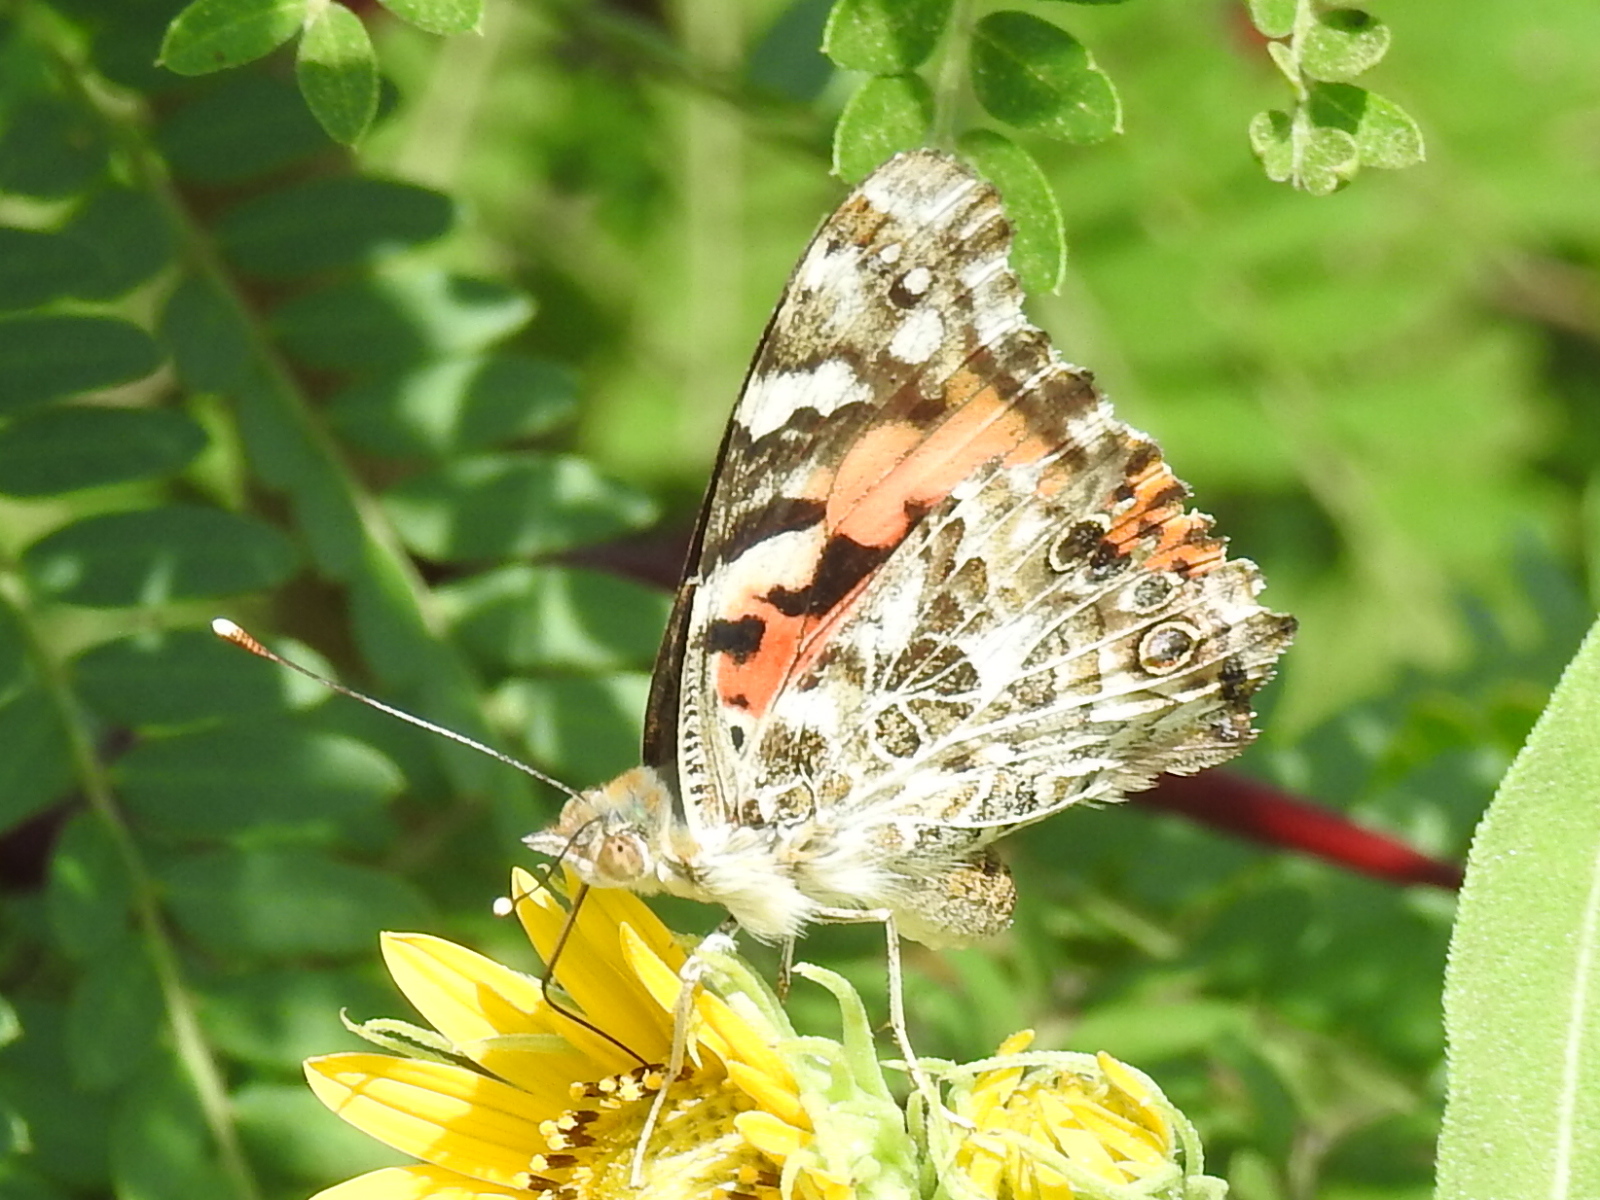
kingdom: Animalia
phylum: Arthropoda
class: Insecta
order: Lepidoptera
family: Nymphalidae
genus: Vanessa
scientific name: Vanessa cardui
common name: Painted lady
